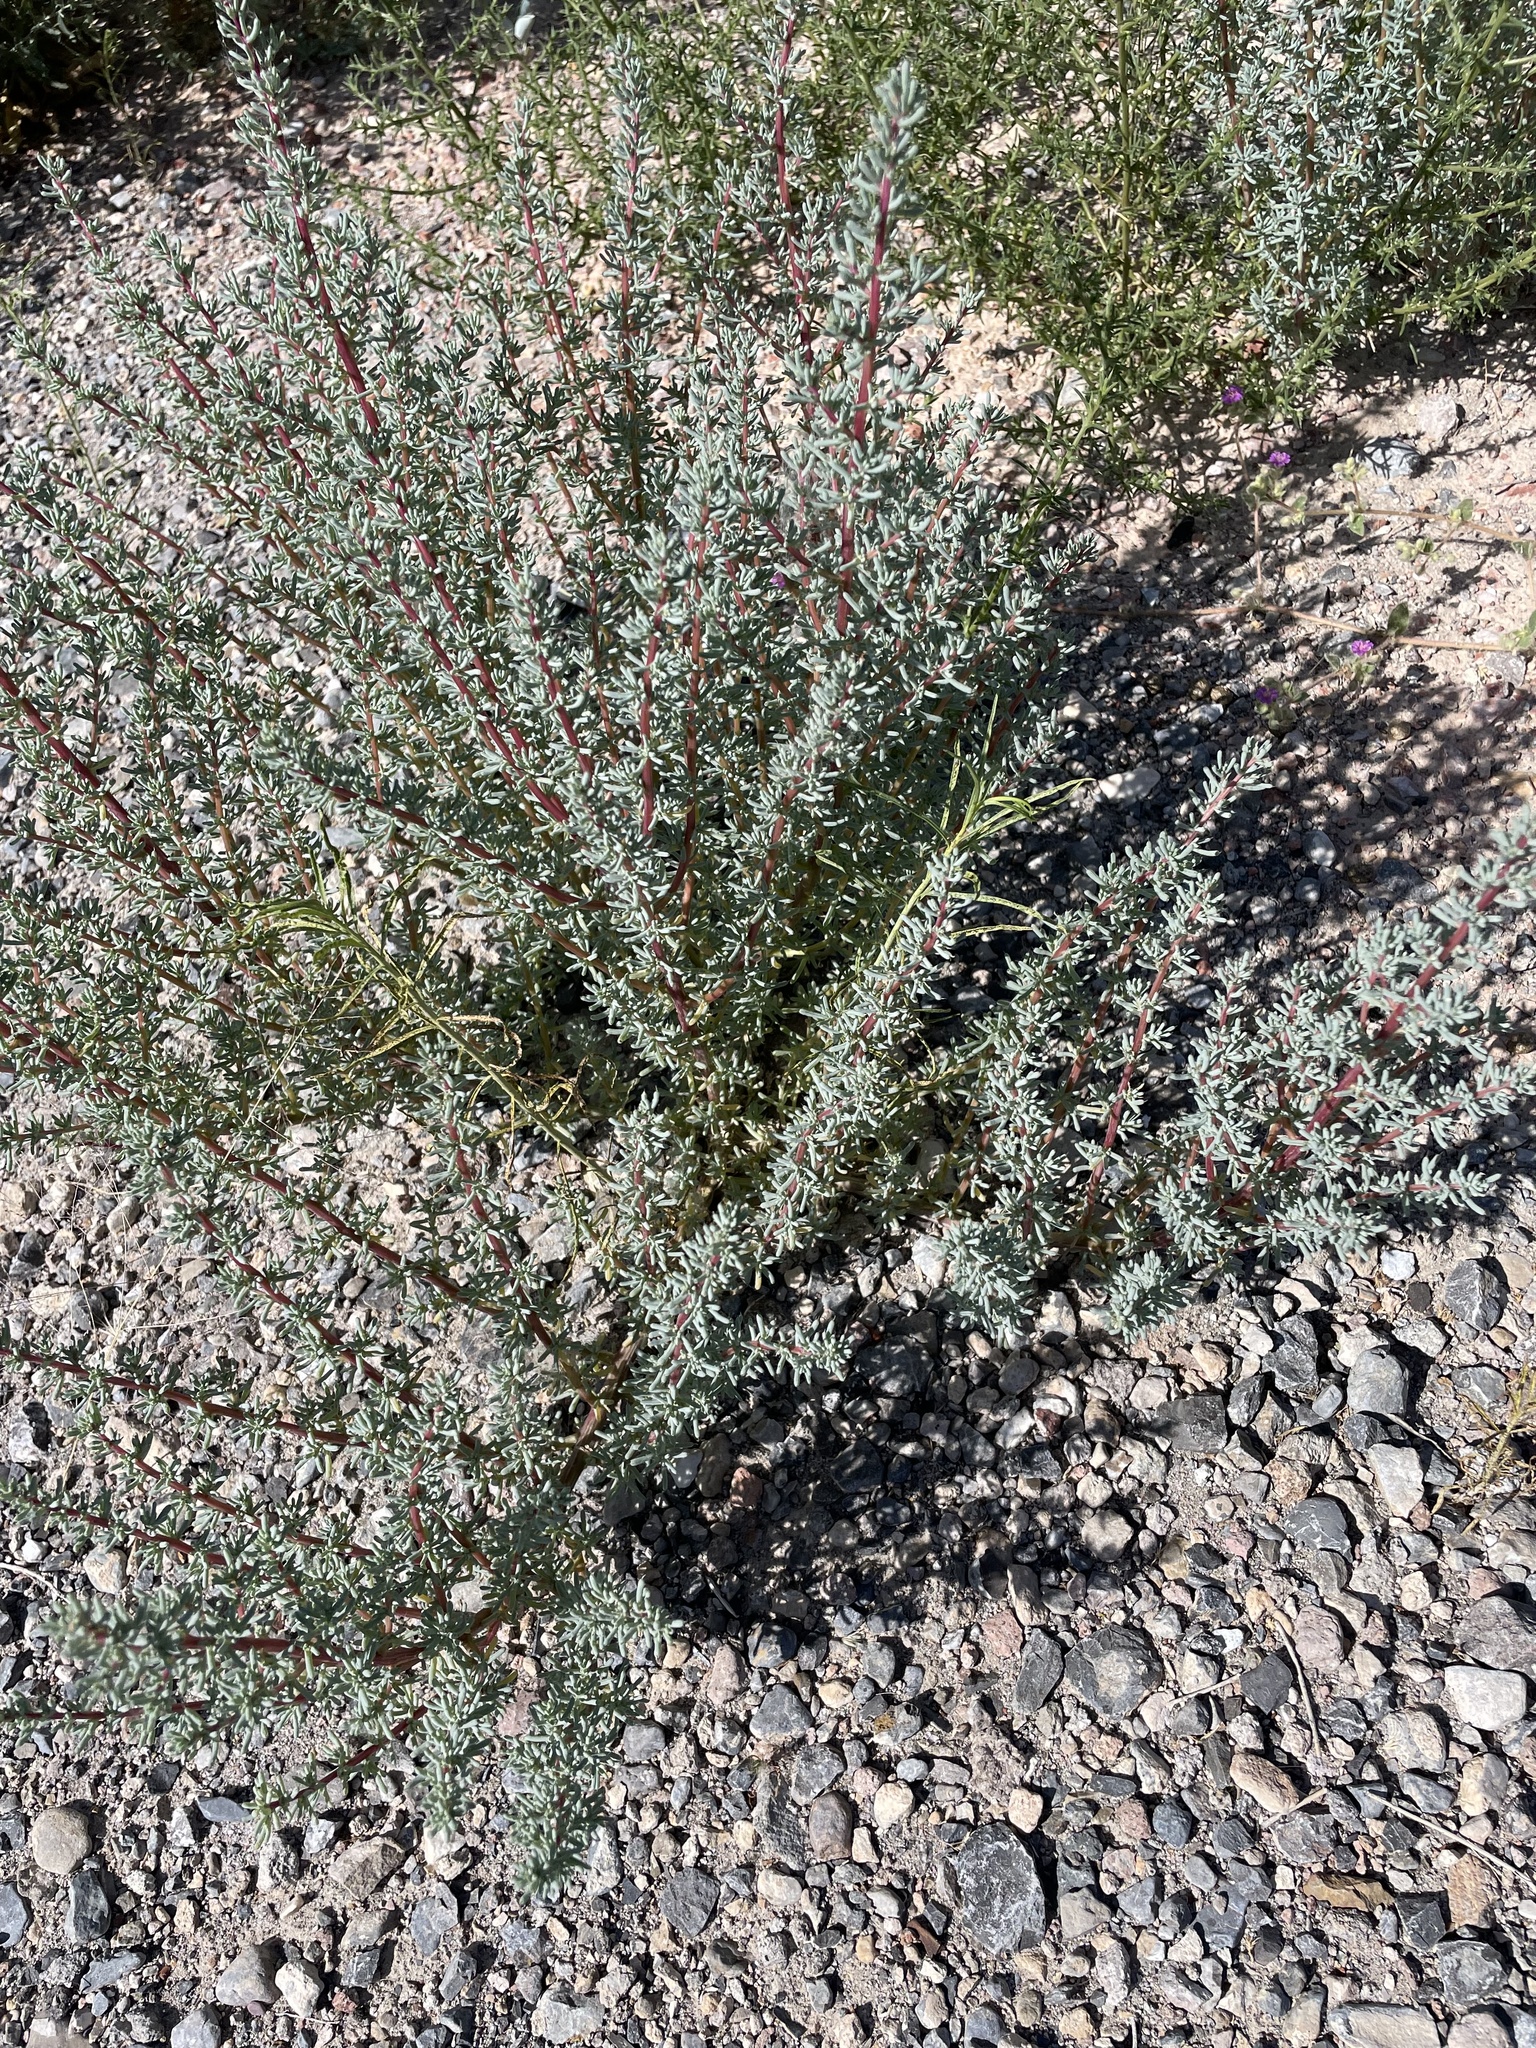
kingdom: Plantae
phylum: Tracheophyta
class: Magnoliopsida
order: Caryophyllales
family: Amaranthaceae
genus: Halogeton
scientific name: Halogeton glomeratus
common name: Saltlover
